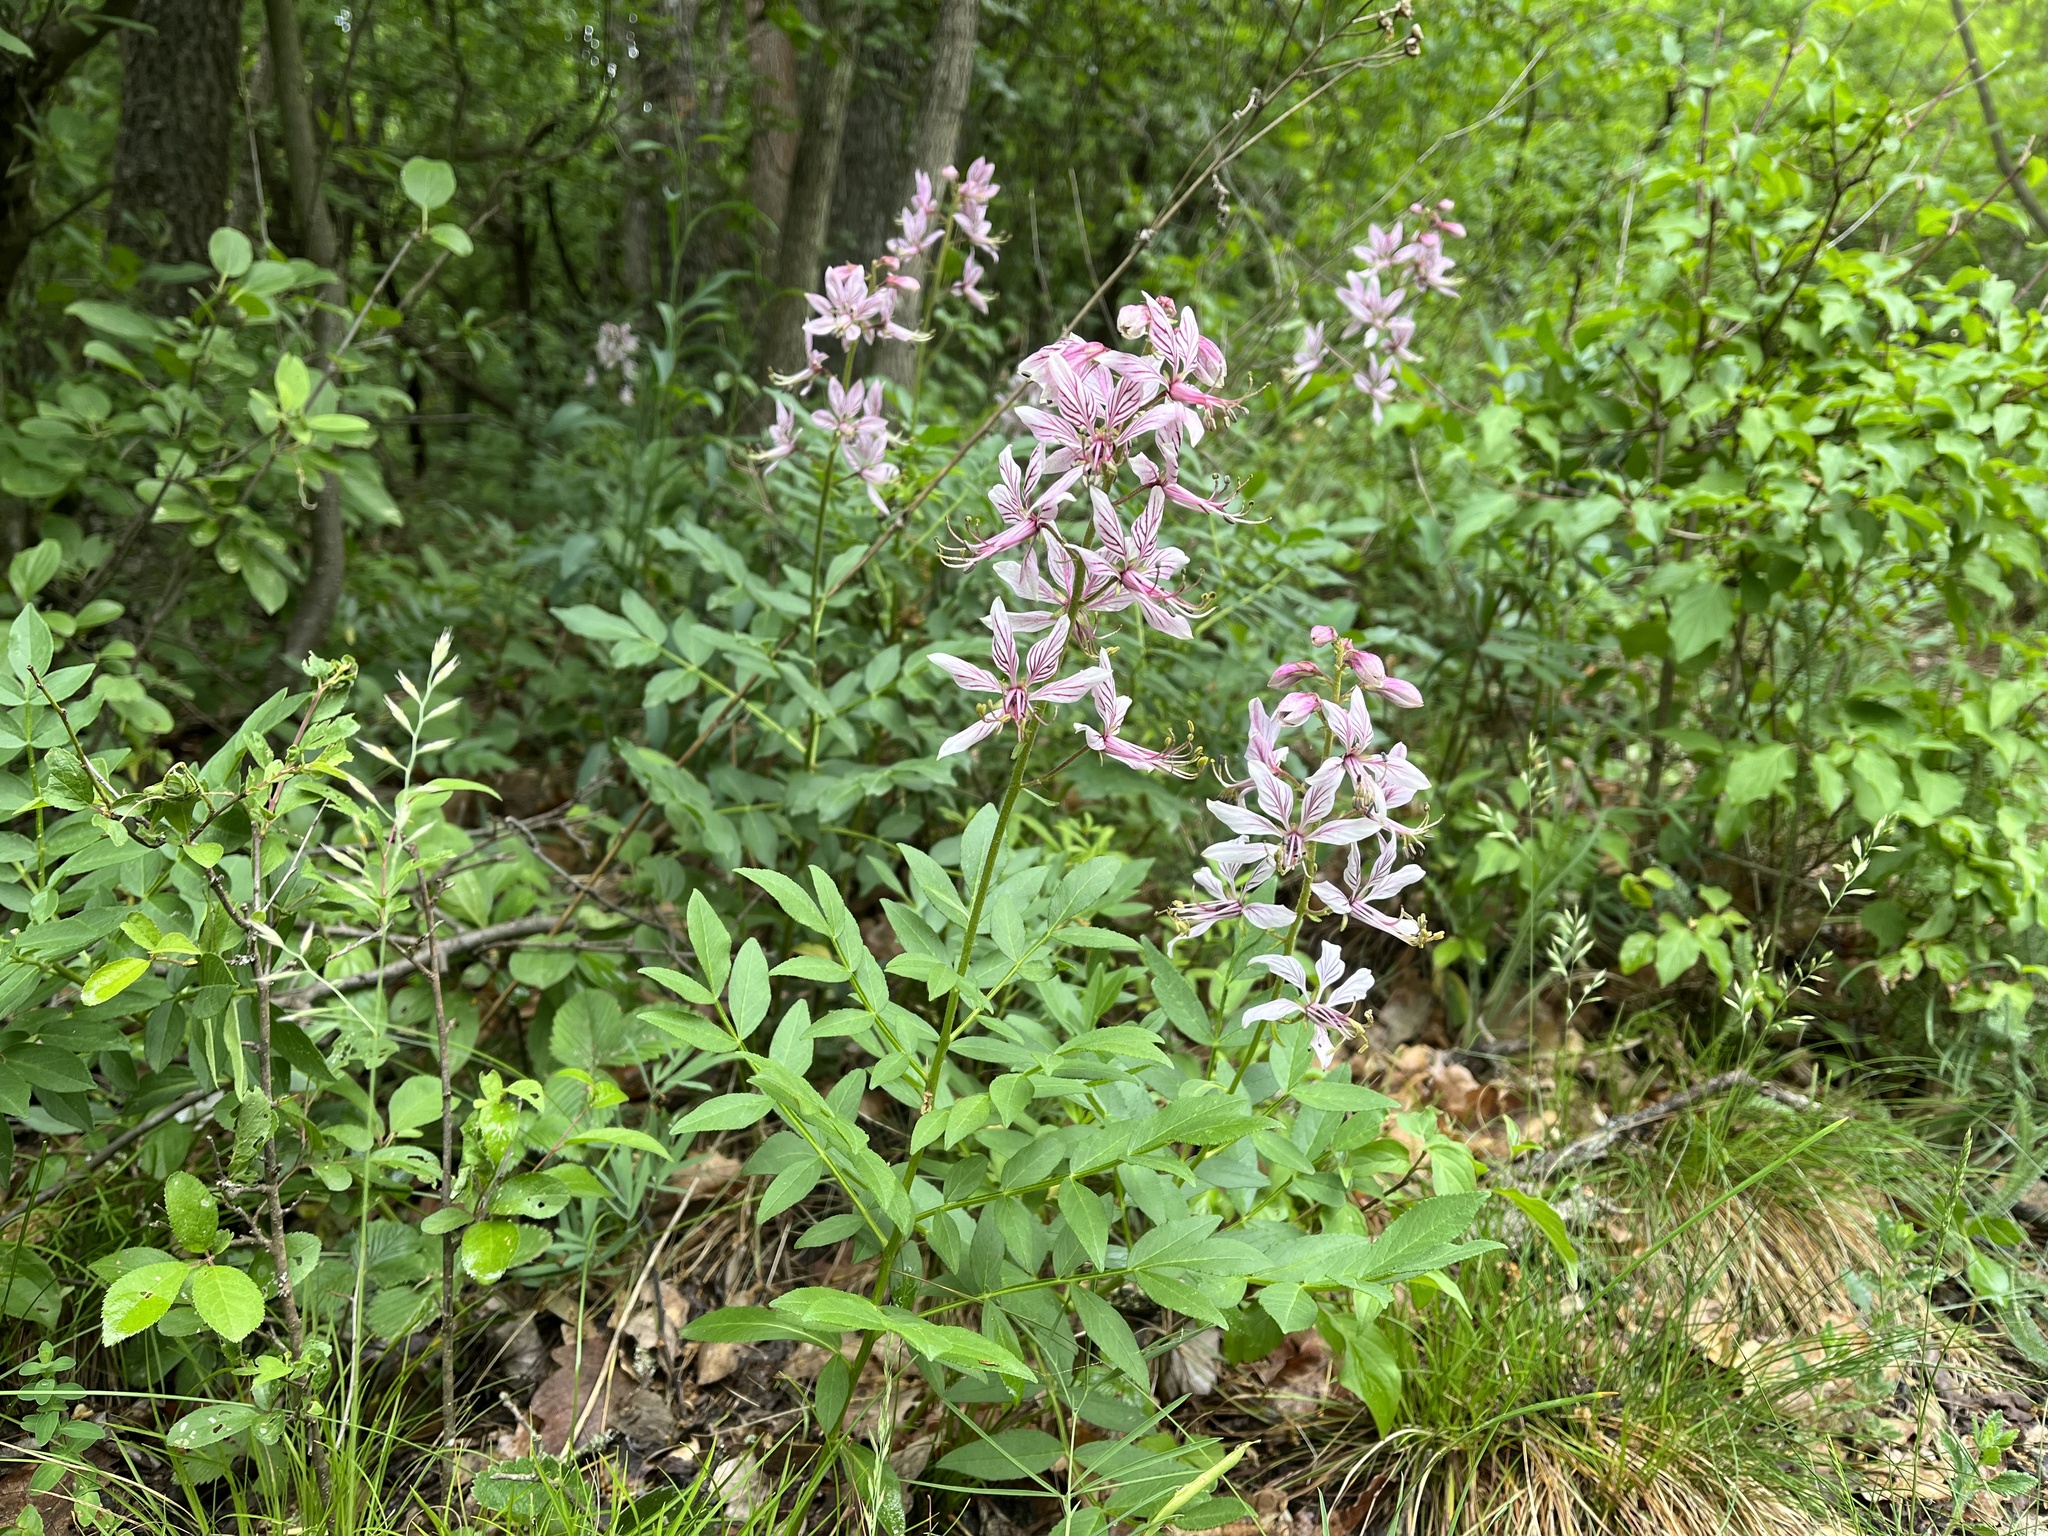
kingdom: Plantae
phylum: Tracheophyta
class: Magnoliopsida
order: Sapindales
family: Rutaceae
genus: Dictamnus
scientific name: Dictamnus albus
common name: Gasplant
